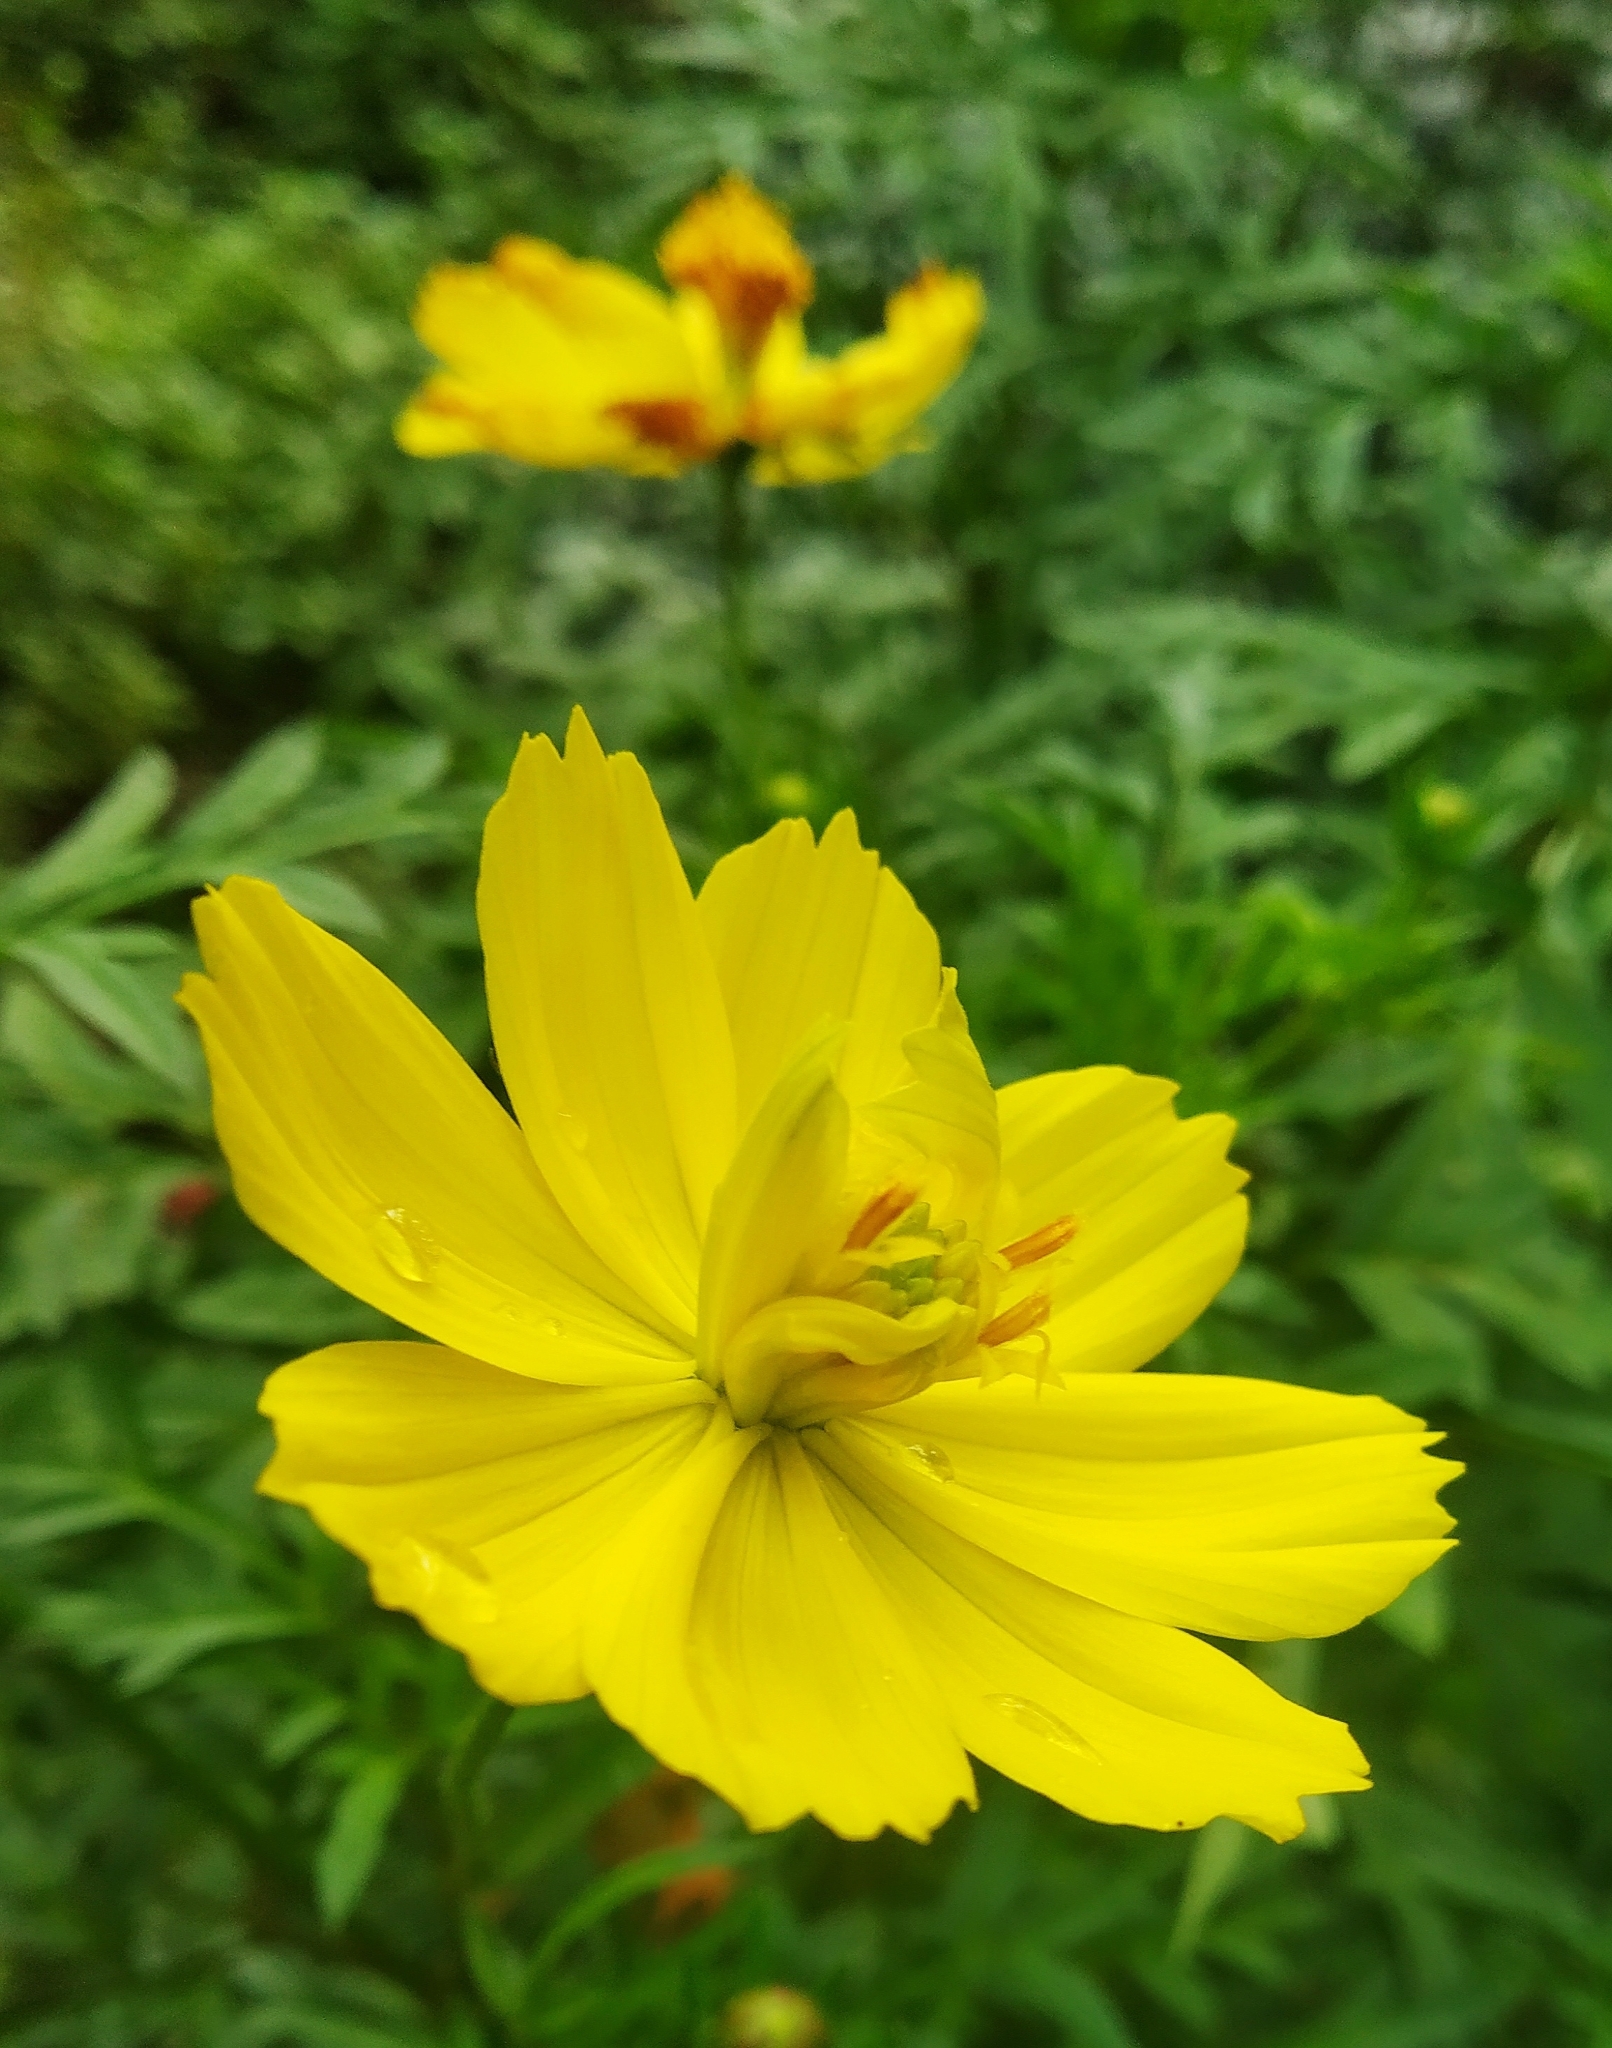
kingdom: Plantae
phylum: Tracheophyta
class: Magnoliopsida
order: Asterales
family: Asteraceae
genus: Cosmos
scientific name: Cosmos sulphureus
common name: Sulphur cosmos
